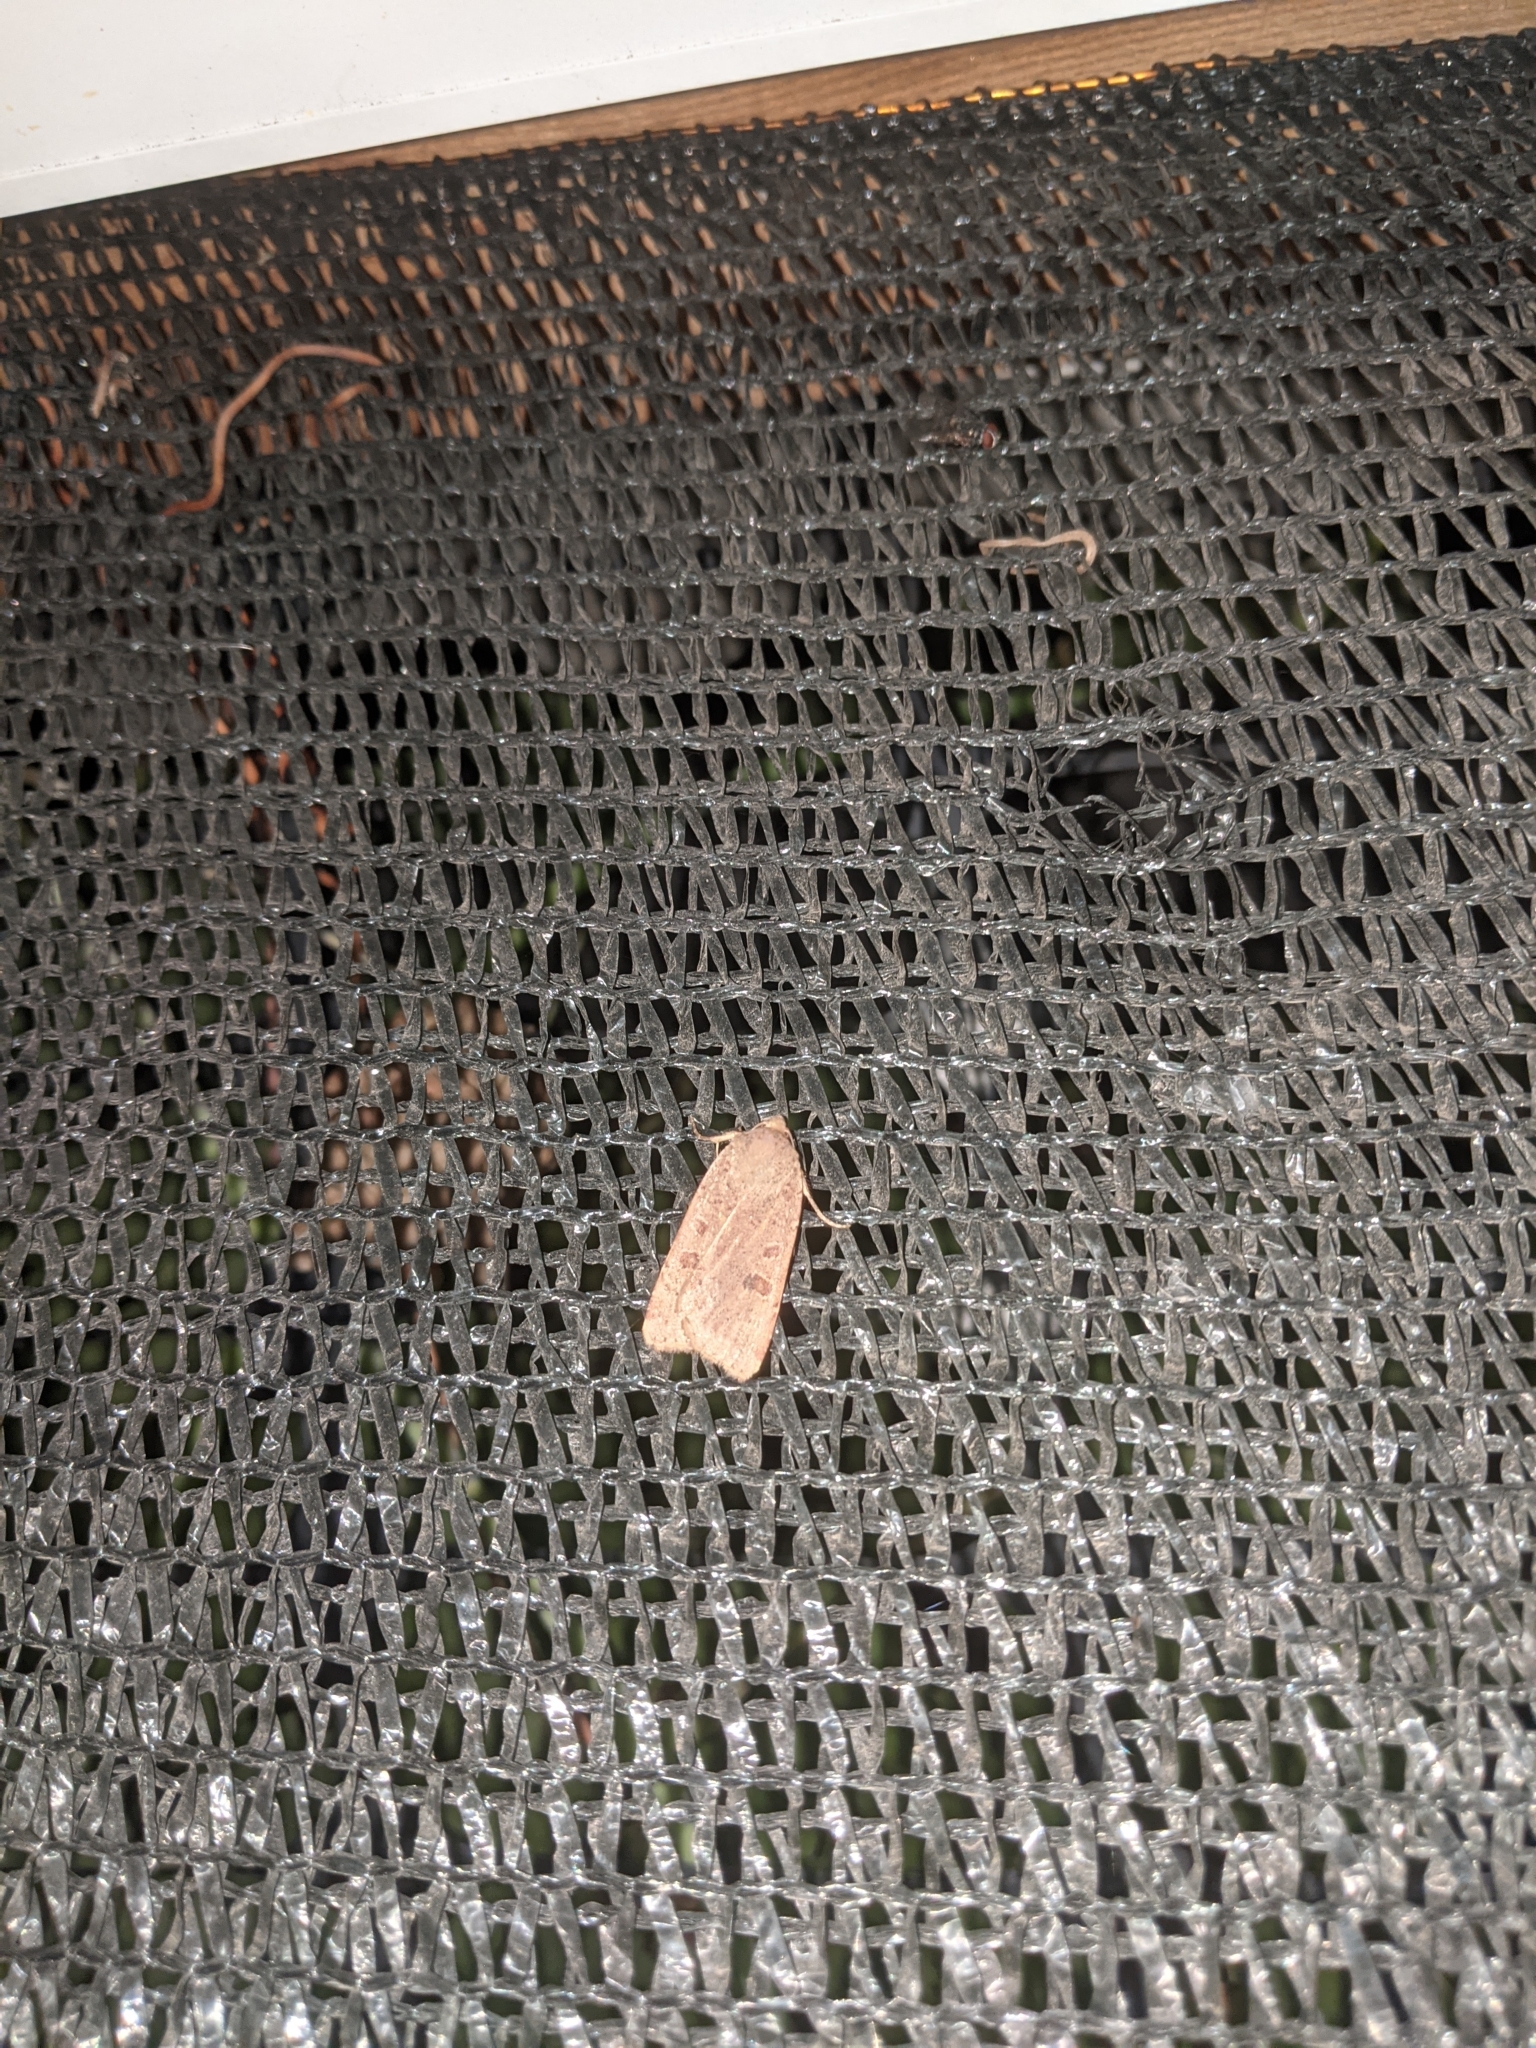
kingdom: Animalia
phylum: Arthropoda
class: Insecta
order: Lepidoptera
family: Noctuidae
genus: Noctua
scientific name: Noctua comes
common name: Lesser yellow underwing
